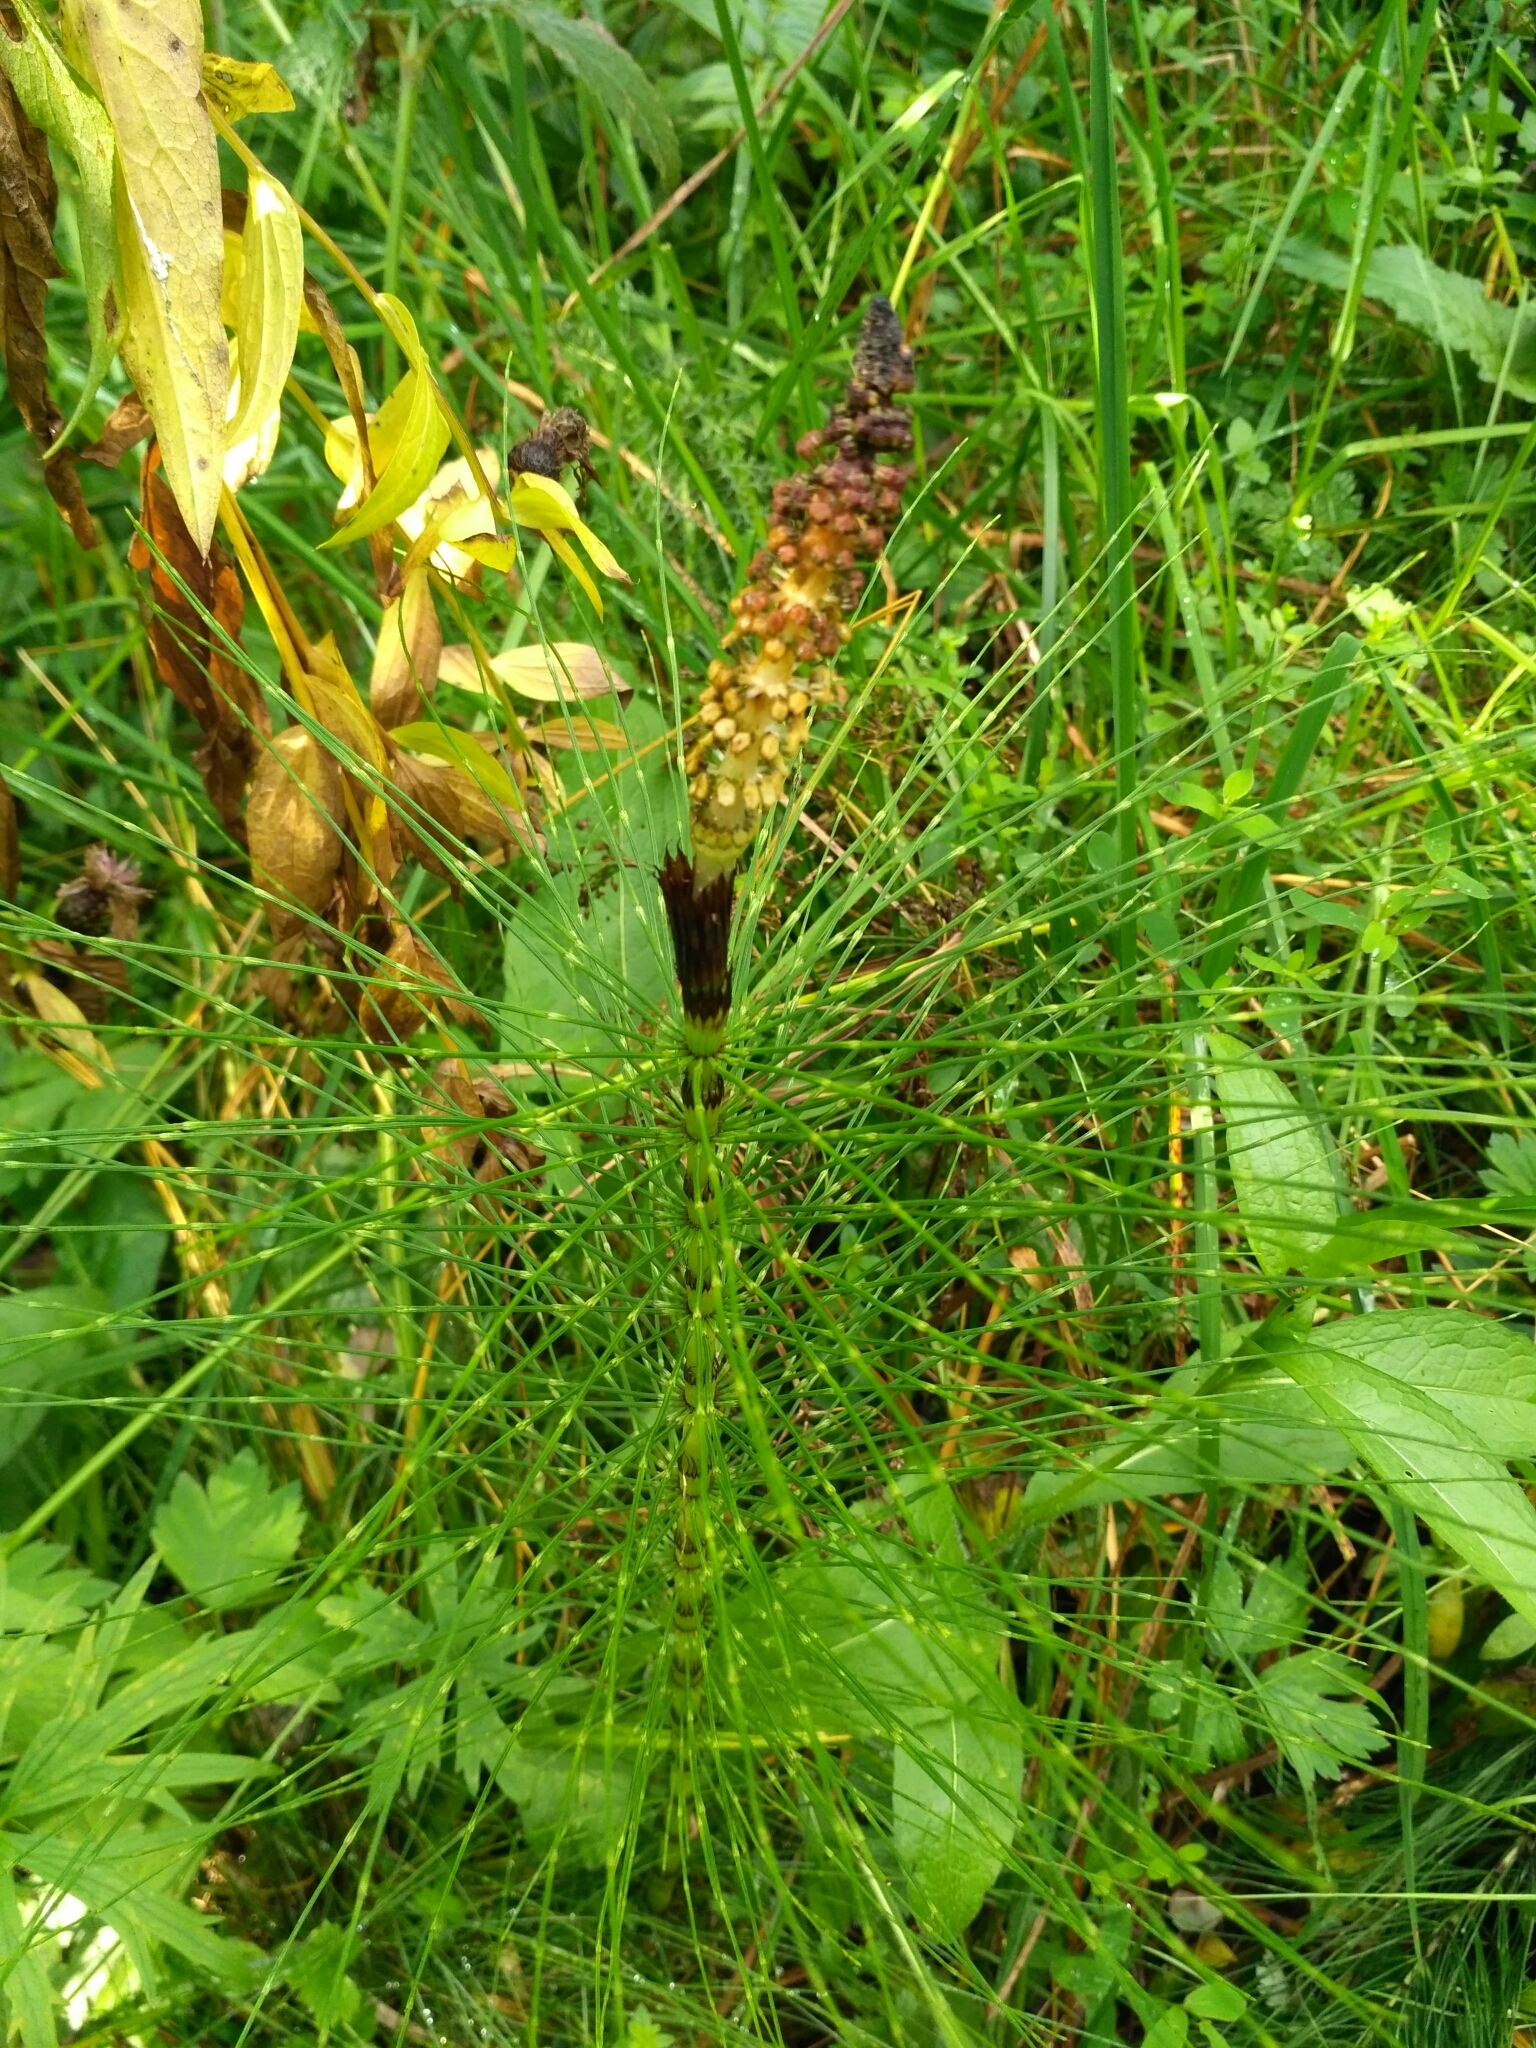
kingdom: Plantae
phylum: Tracheophyta
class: Polypodiopsida
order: Equisetales
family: Equisetaceae
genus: Equisetum
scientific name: Equisetum telmateia
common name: Great horsetail
